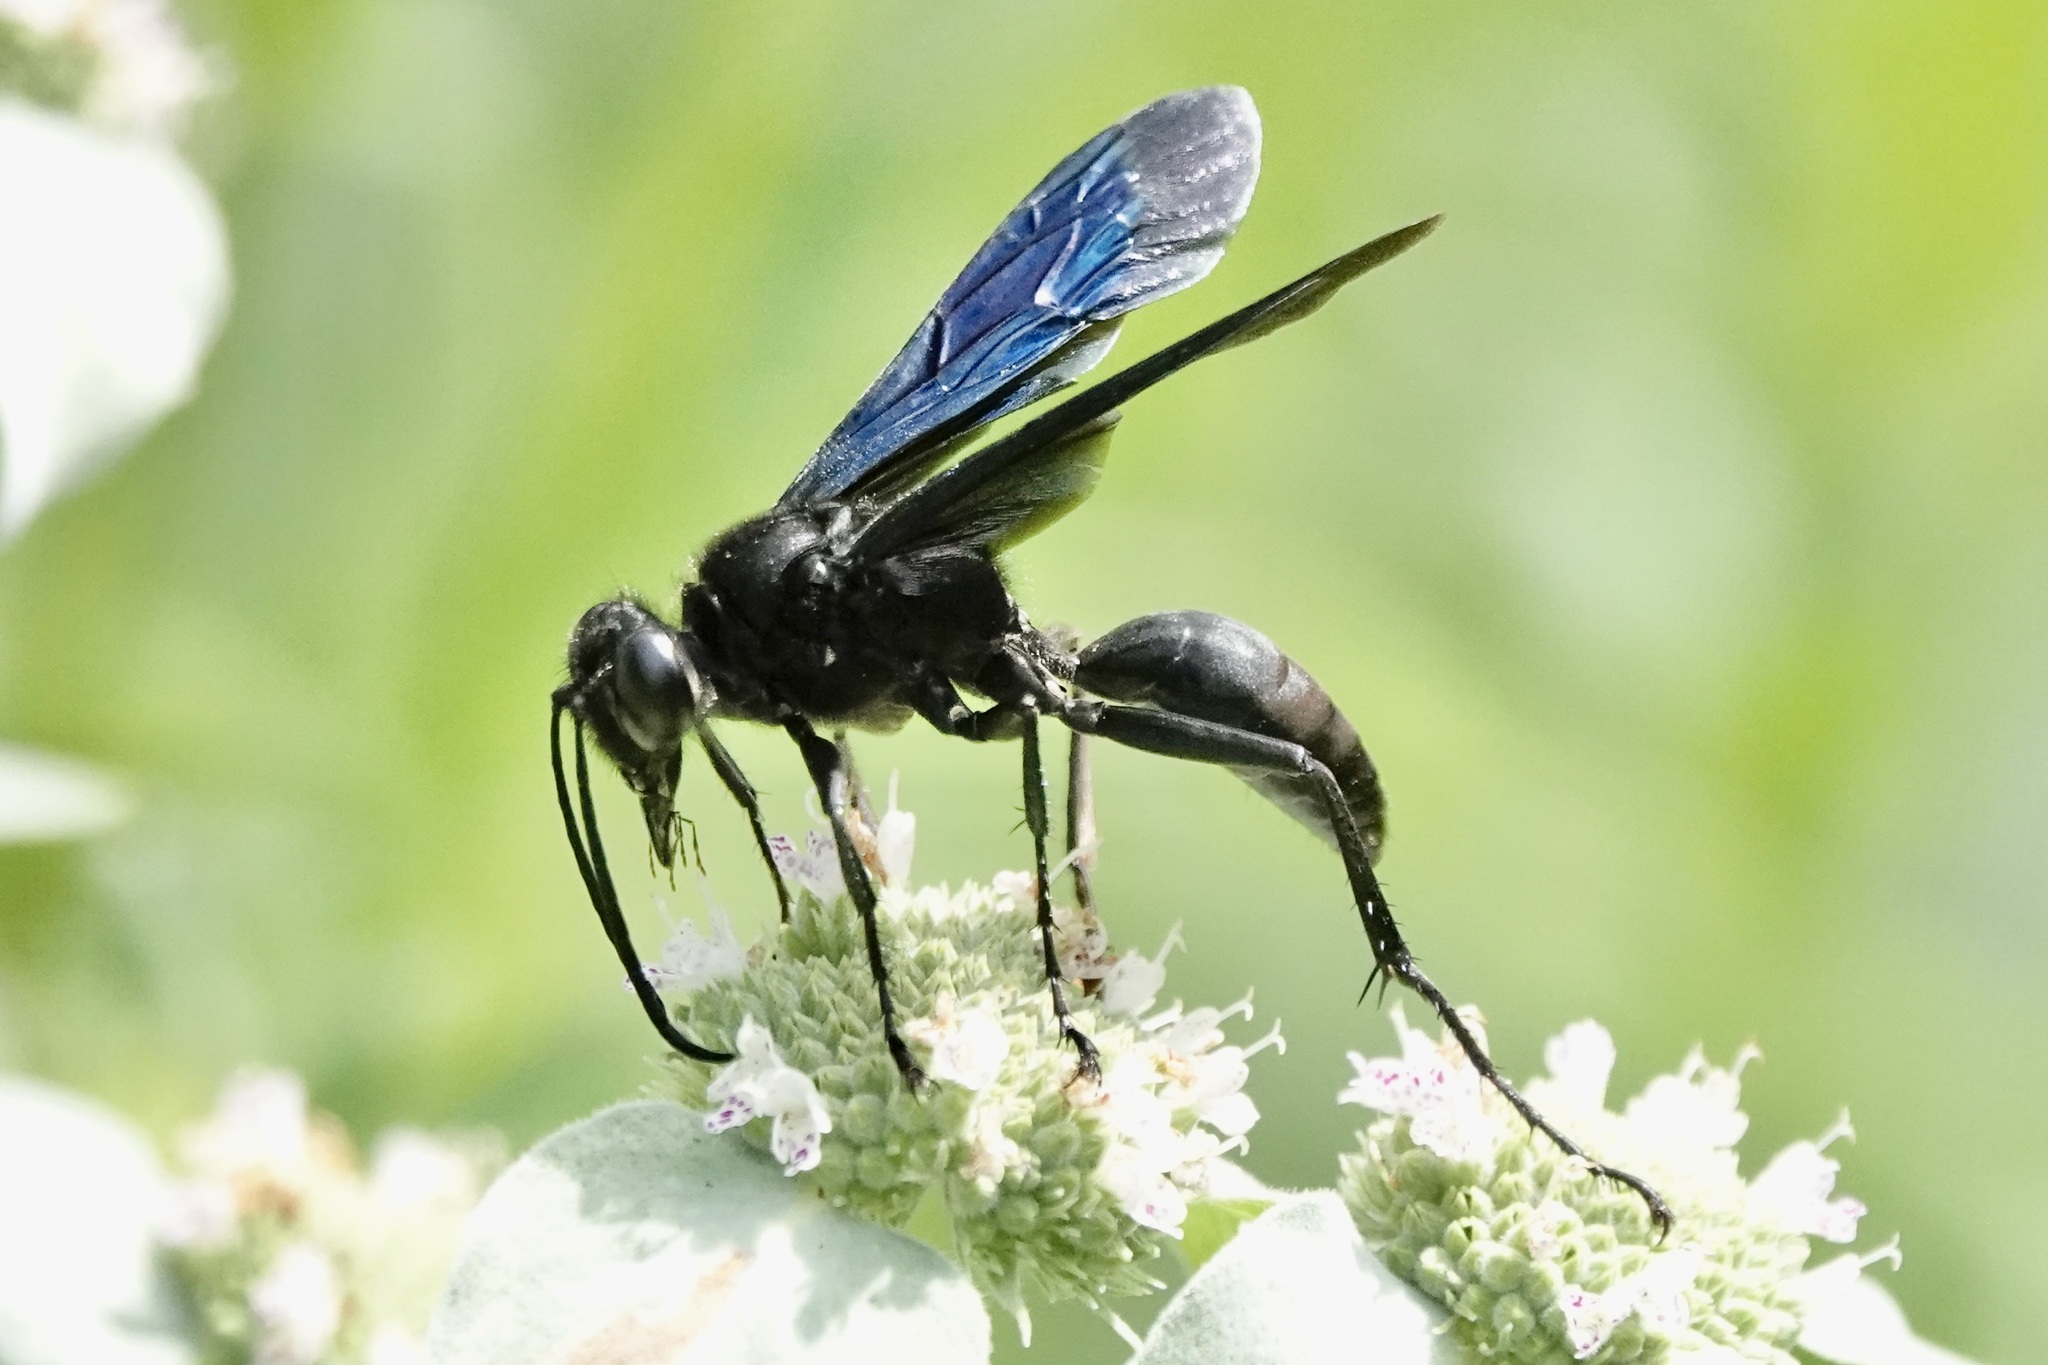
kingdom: Animalia
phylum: Arthropoda
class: Insecta
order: Hymenoptera
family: Sphecidae
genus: Sphex
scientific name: Sphex pensylvanicus
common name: Great black digger wasp
